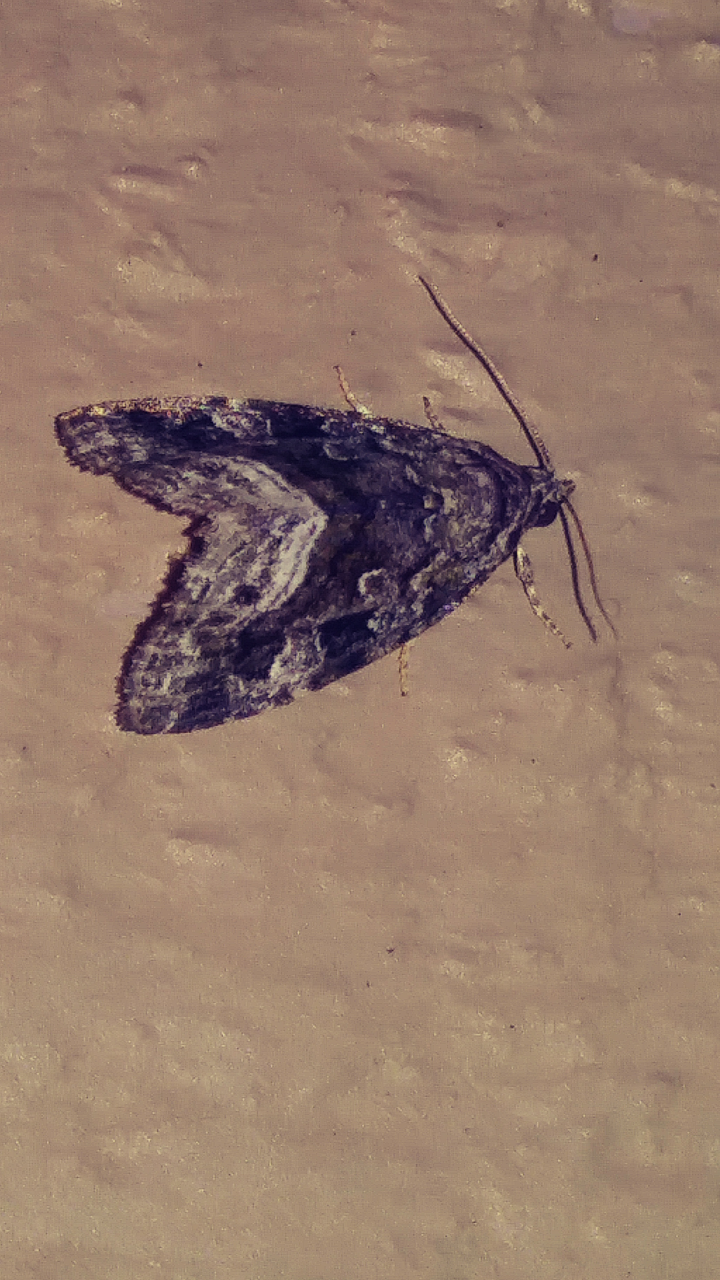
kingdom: Animalia
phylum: Arthropoda
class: Insecta
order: Lepidoptera
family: Noctuidae
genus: Protodeltote
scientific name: Protodeltote muscosula
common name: Large mossy glyph
